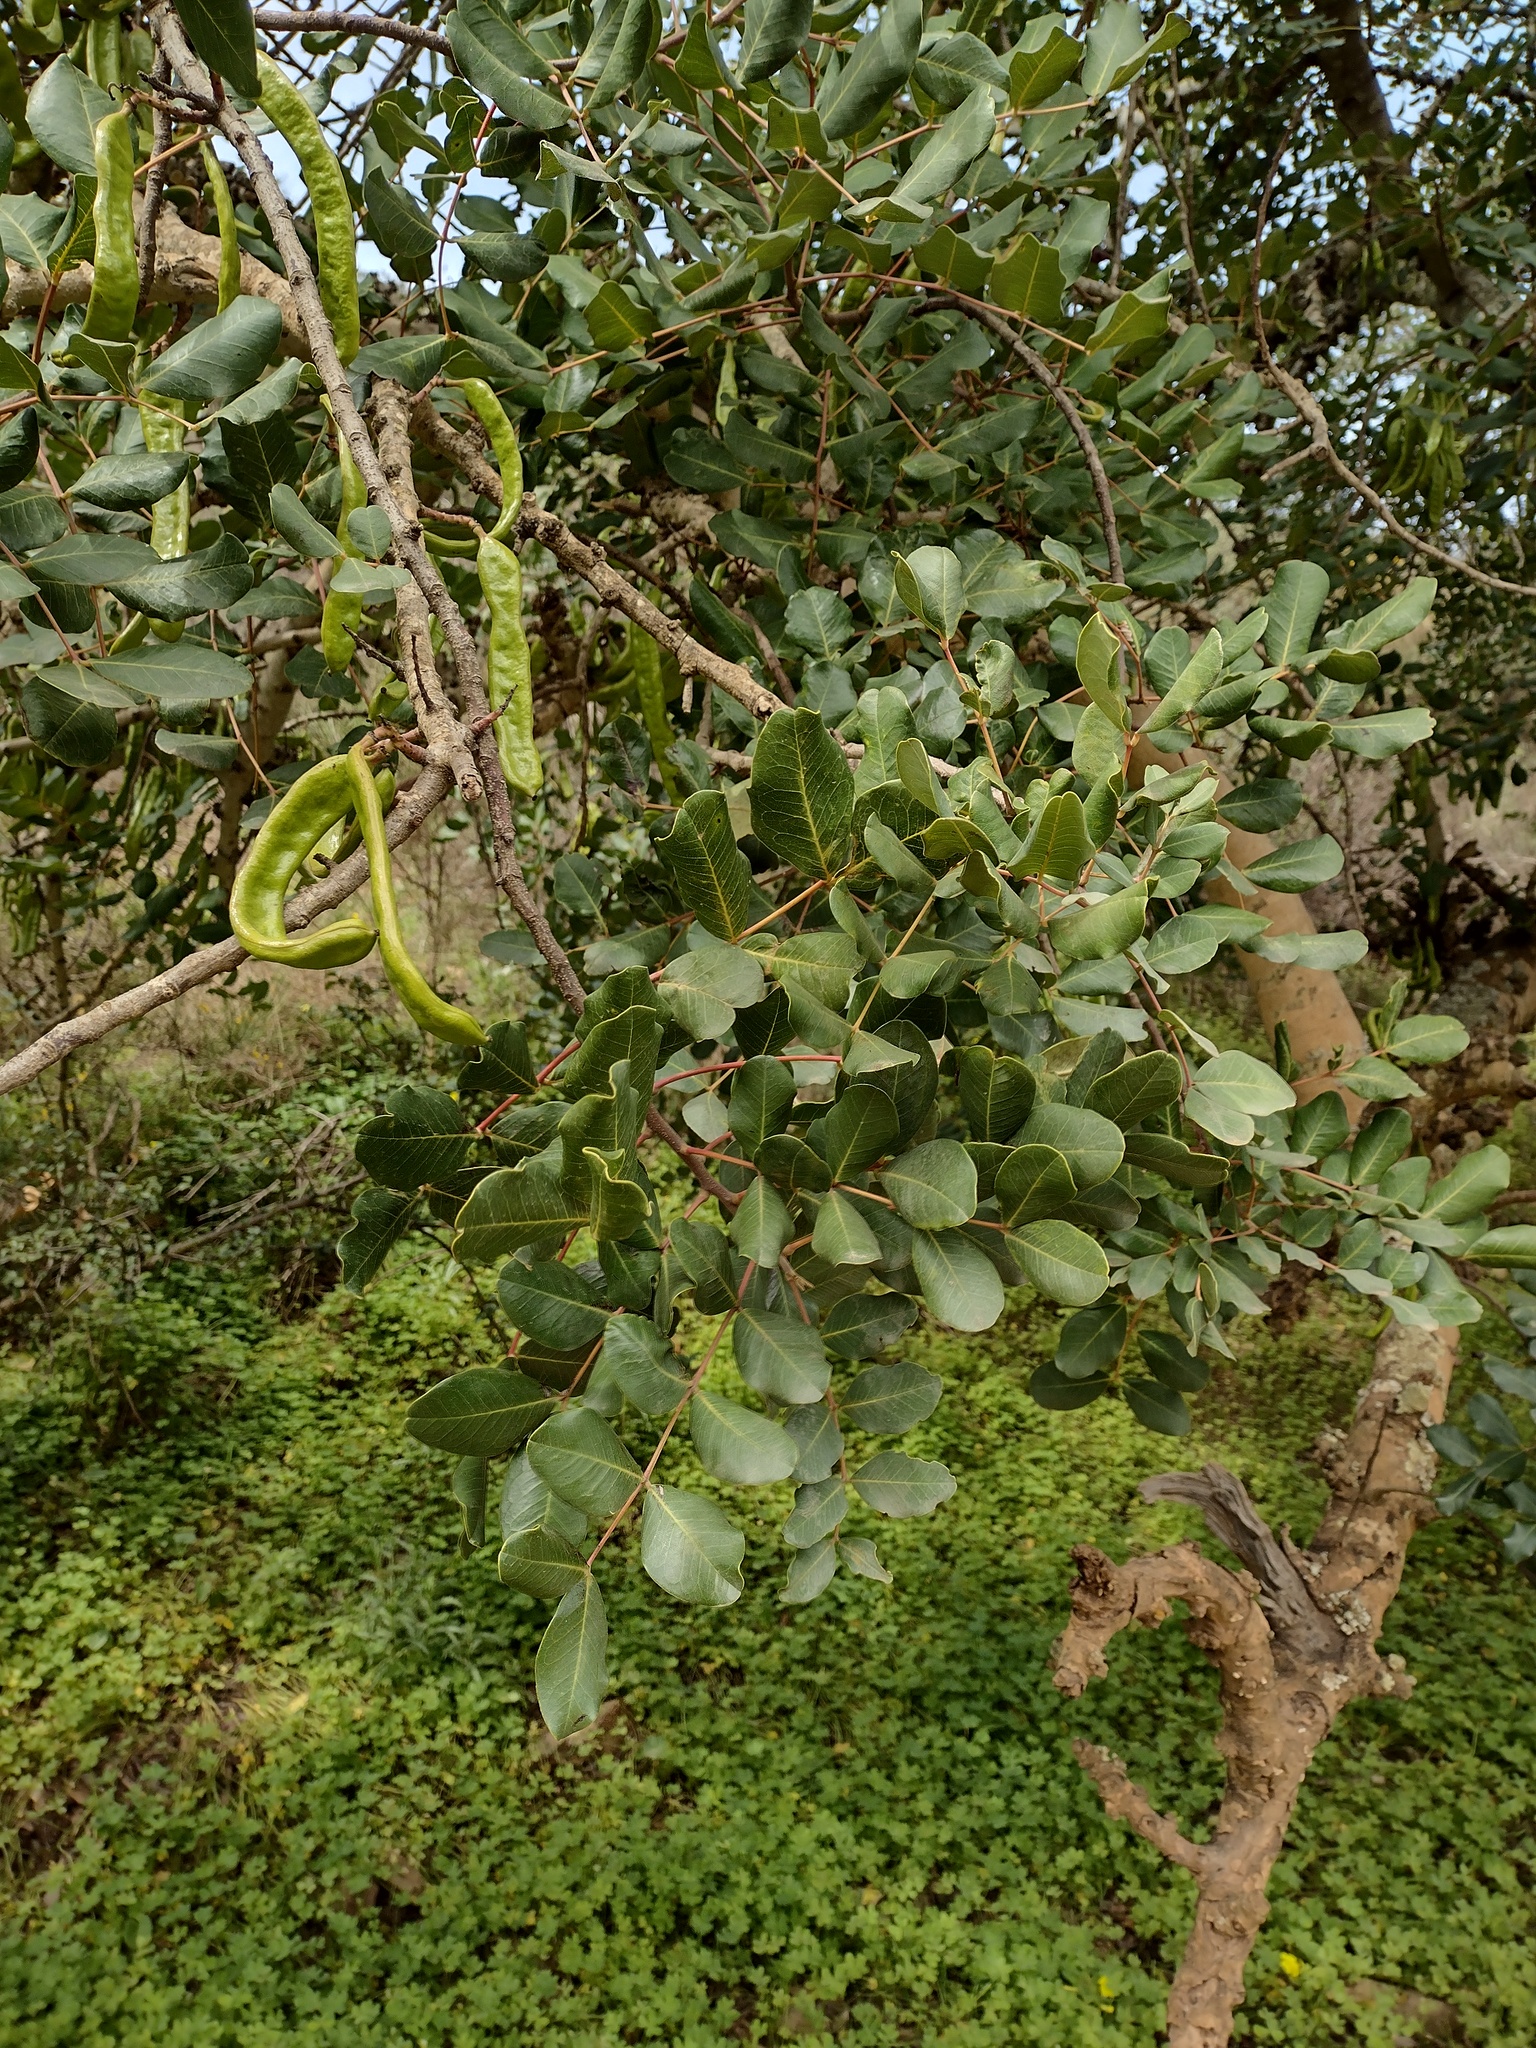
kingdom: Plantae
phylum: Tracheophyta
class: Magnoliopsida
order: Fabales
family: Fabaceae
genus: Ceratonia
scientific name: Ceratonia siliqua
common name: Carob
